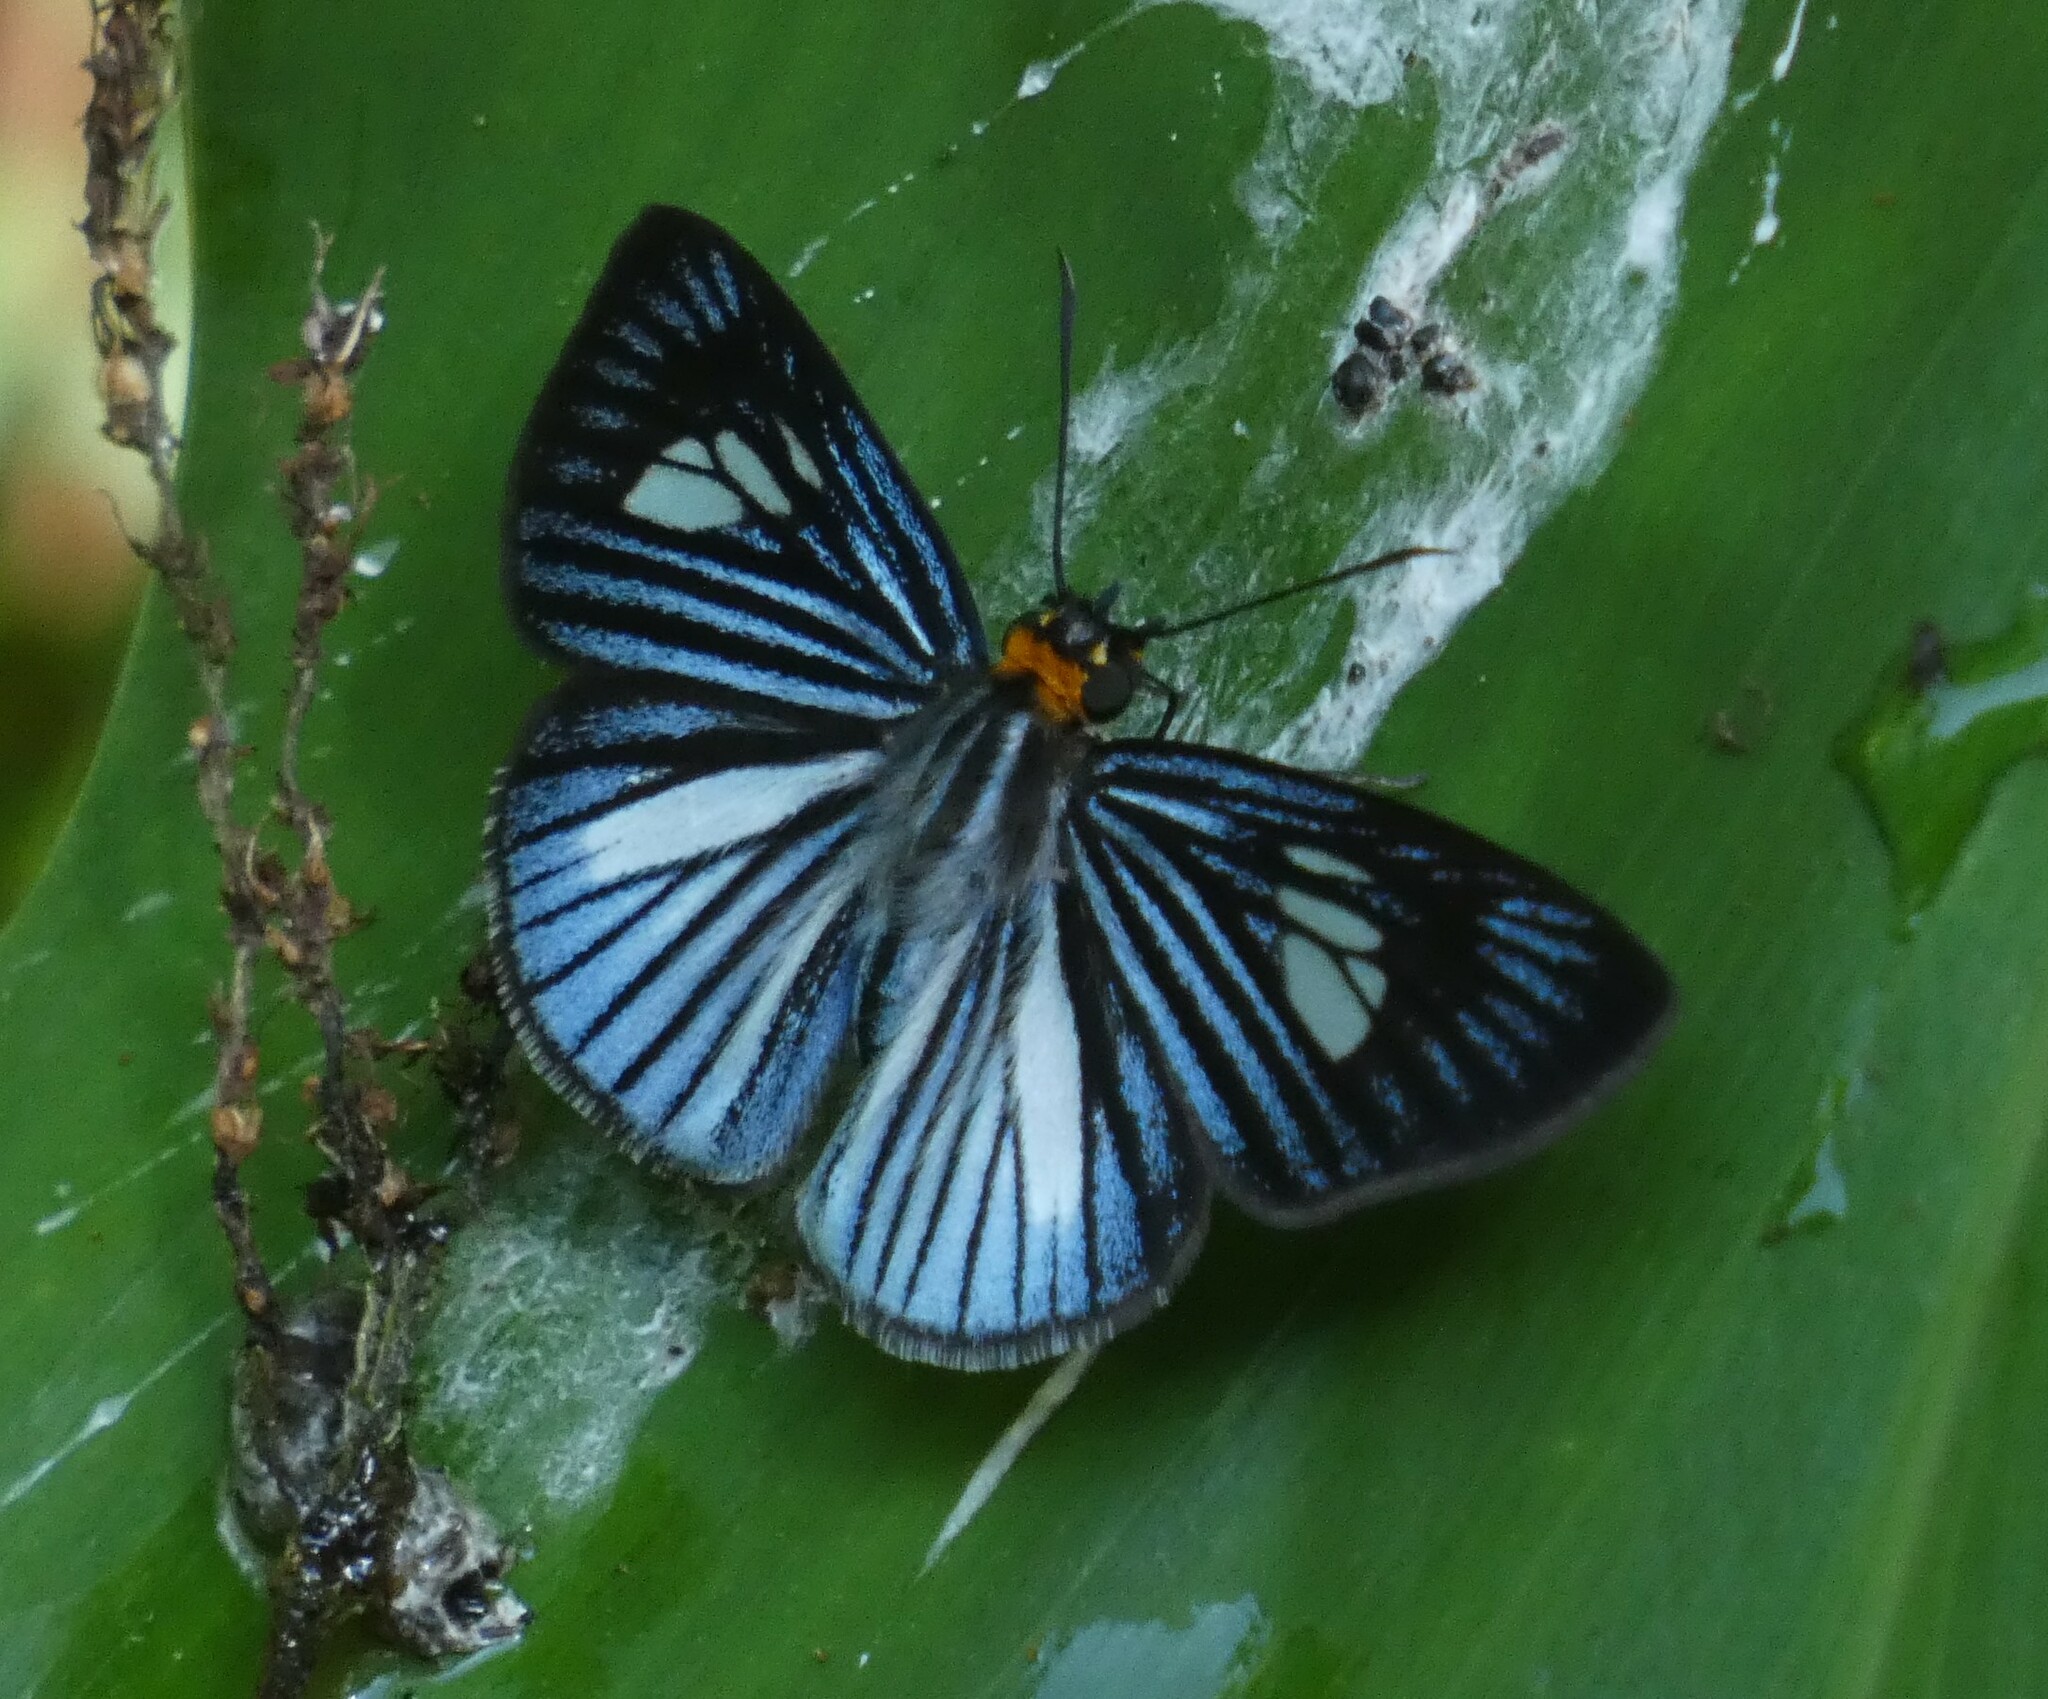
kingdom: Animalia
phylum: Arthropoda
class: Insecta
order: Lepidoptera
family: Hesperiidae
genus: Pythonides
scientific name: Pythonides lancea
